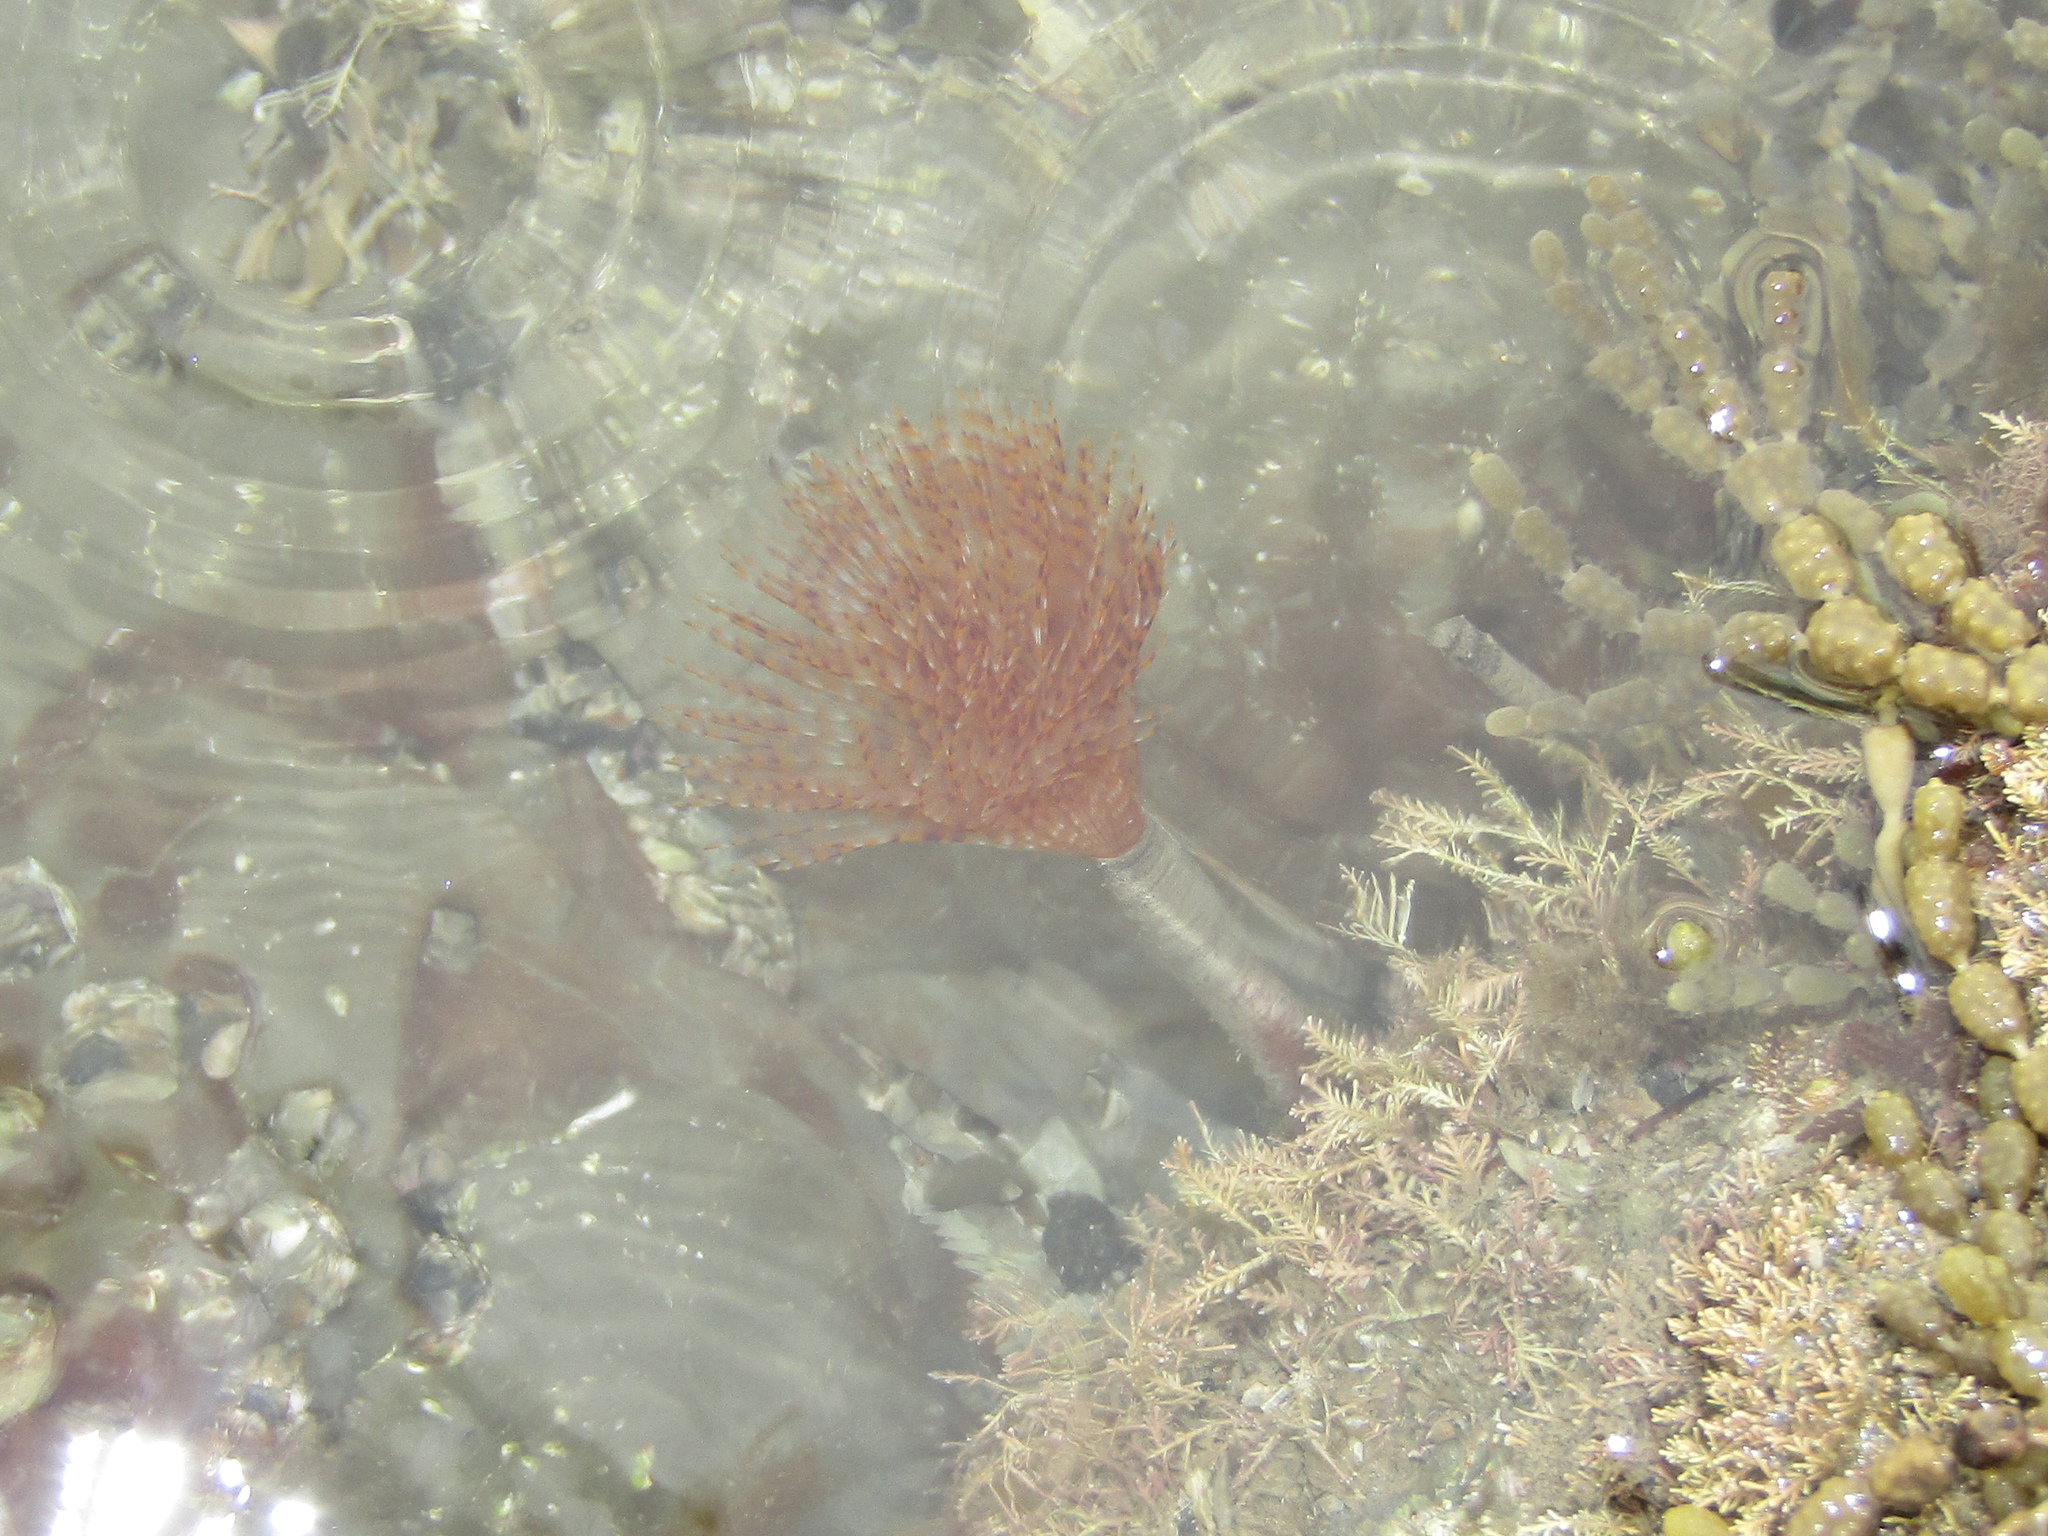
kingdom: Animalia
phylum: Annelida
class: Polychaeta
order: Sabellida
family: Sabellidae
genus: Sabella
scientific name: Sabella spallanzanii
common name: Feather duster worm
